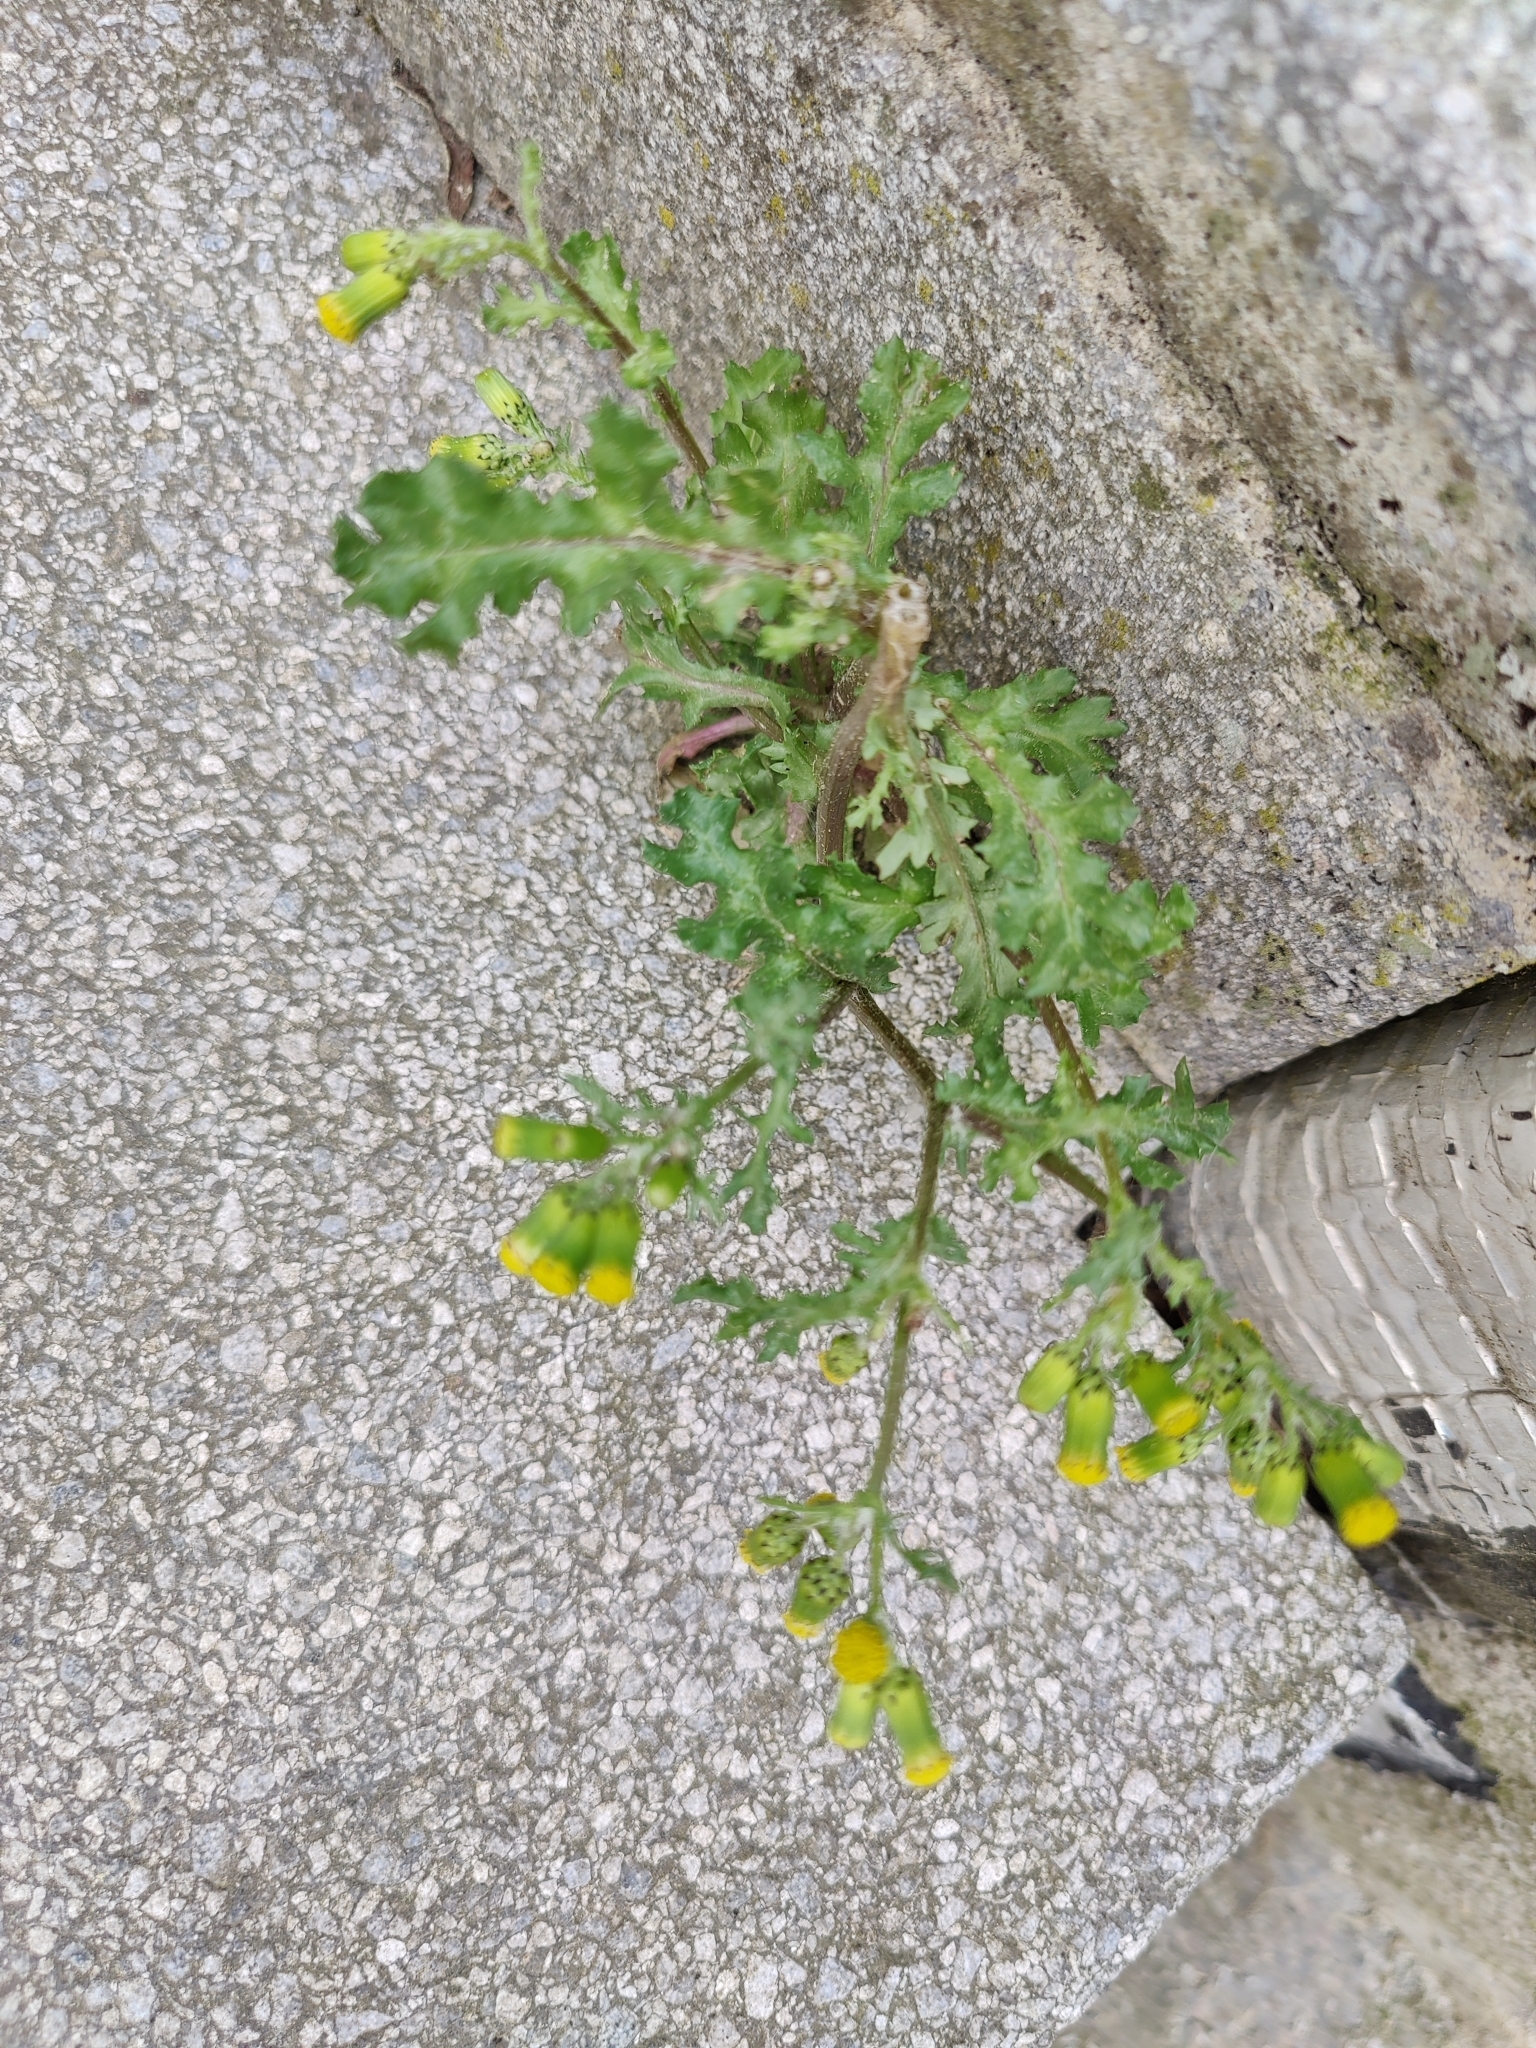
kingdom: Plantae
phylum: Tracheophyta
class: Magnoliopsida
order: Asterales
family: Asteraceae
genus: Senecio
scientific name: Senecio vulgaris
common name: Old-man-in-the-spring
